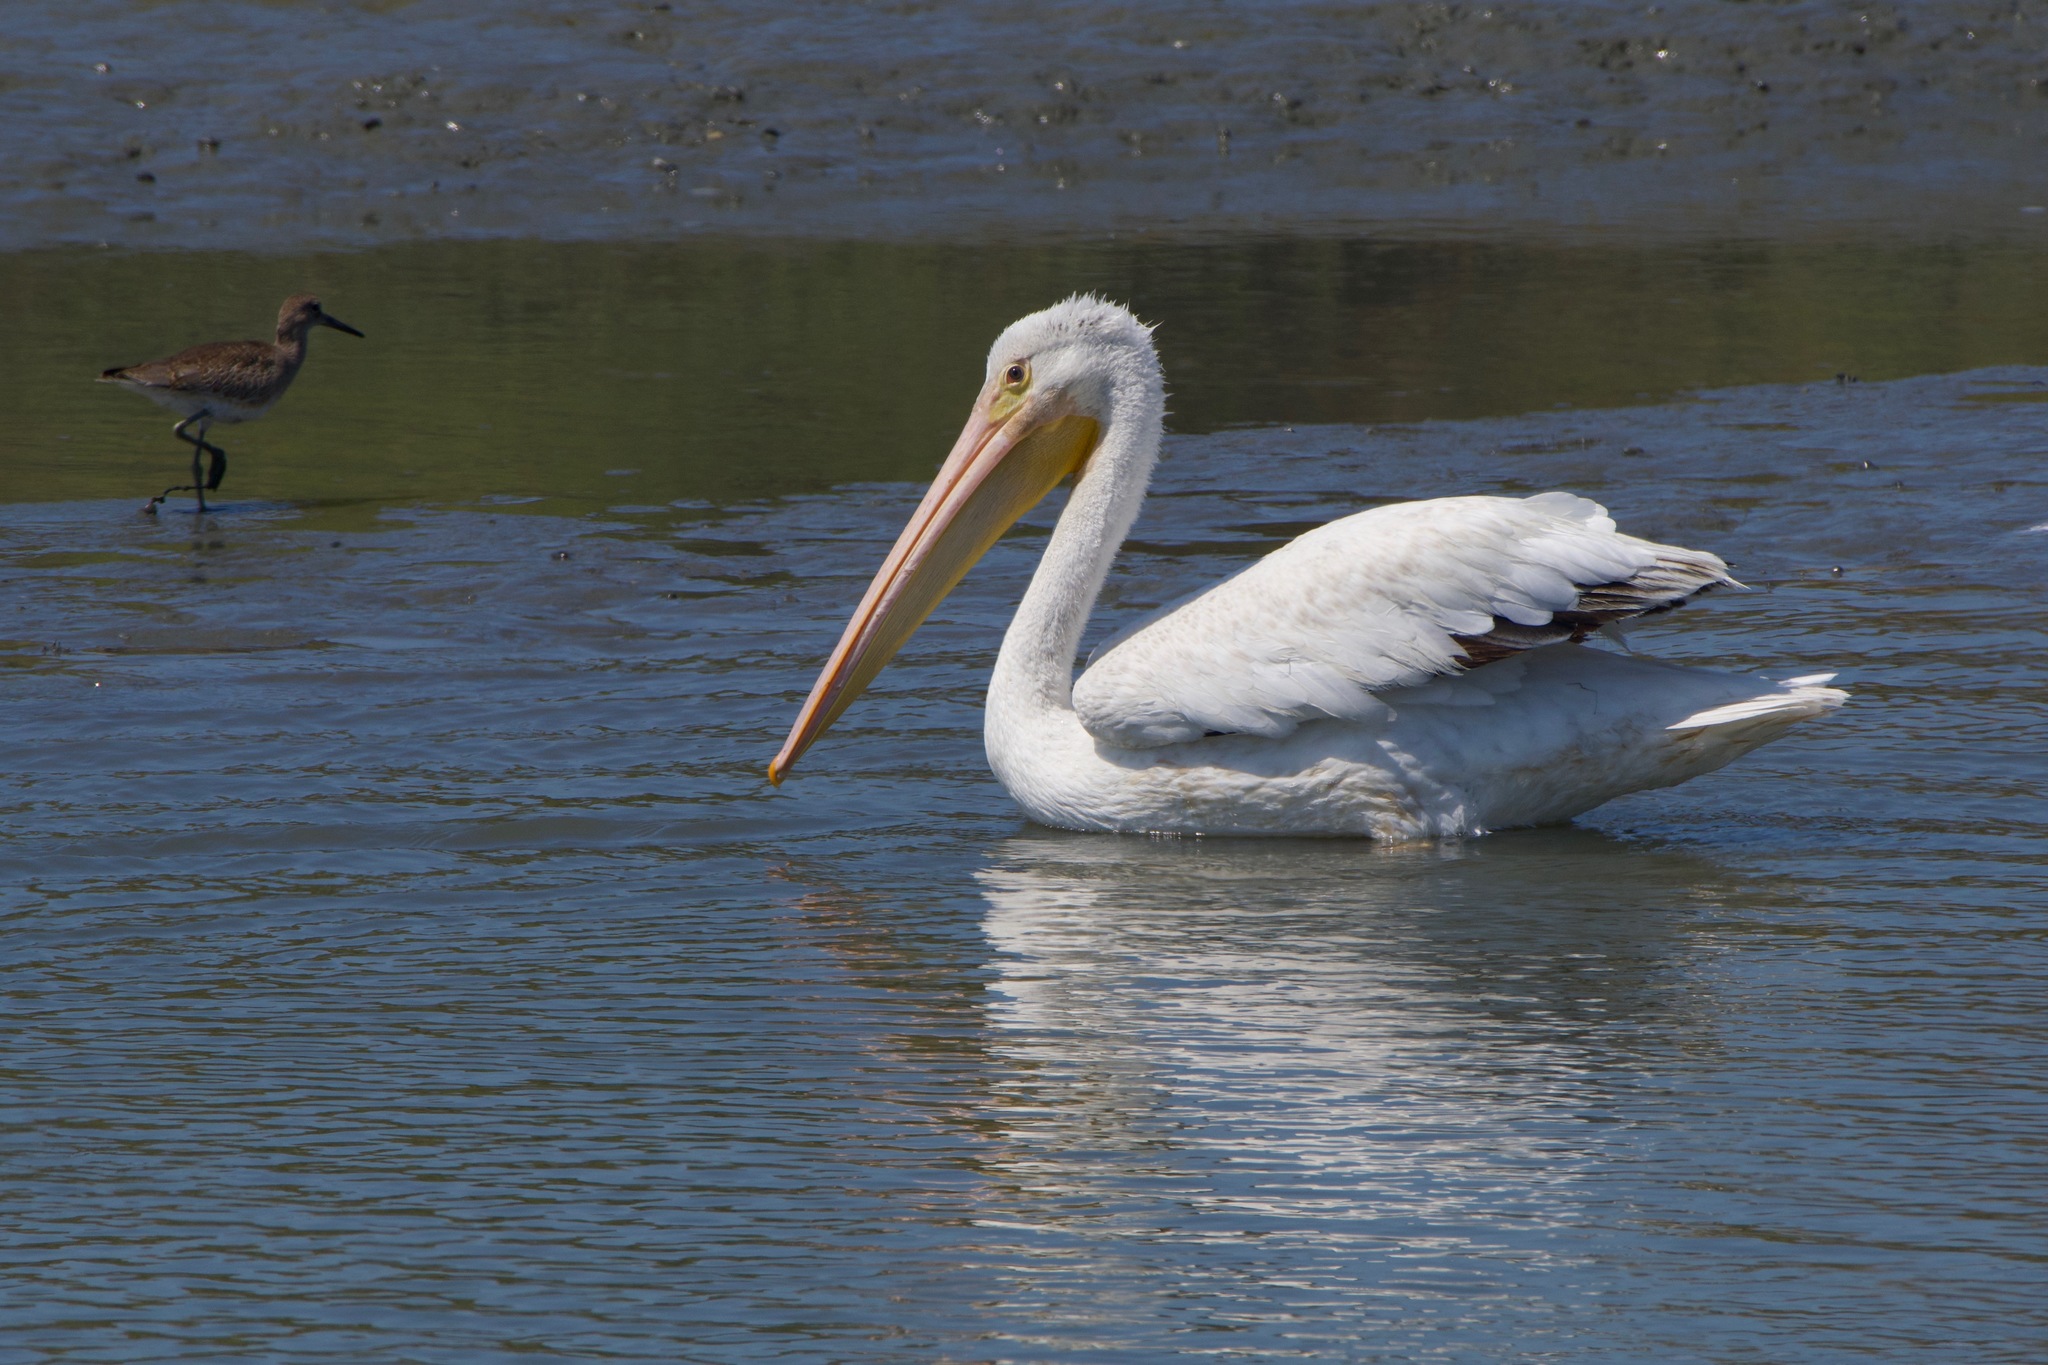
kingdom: Animalia
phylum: Chordata
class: Aves
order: Pelecaniformes
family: Pelecanidae
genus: Pelecanus
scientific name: Pelecanus erythrorhynchos
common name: American white pelican
